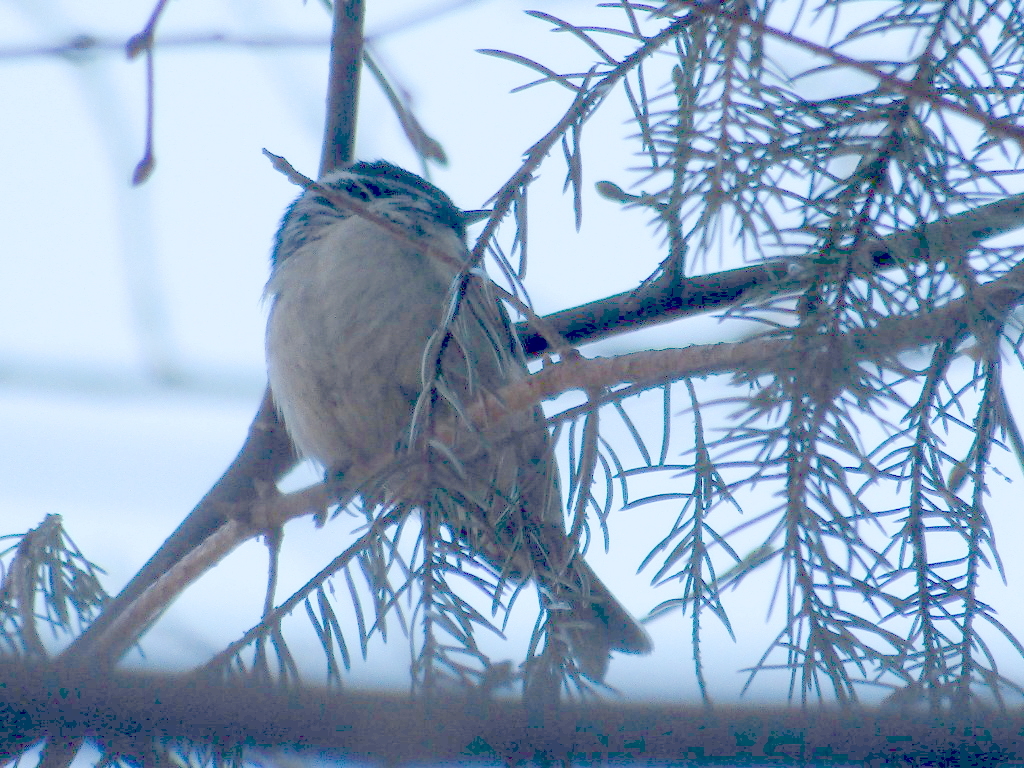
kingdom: Animalia
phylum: Chordata
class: Aves
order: Passeriformes
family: Paridae
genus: Periparus
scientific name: Periparus ater
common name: Coal tit
